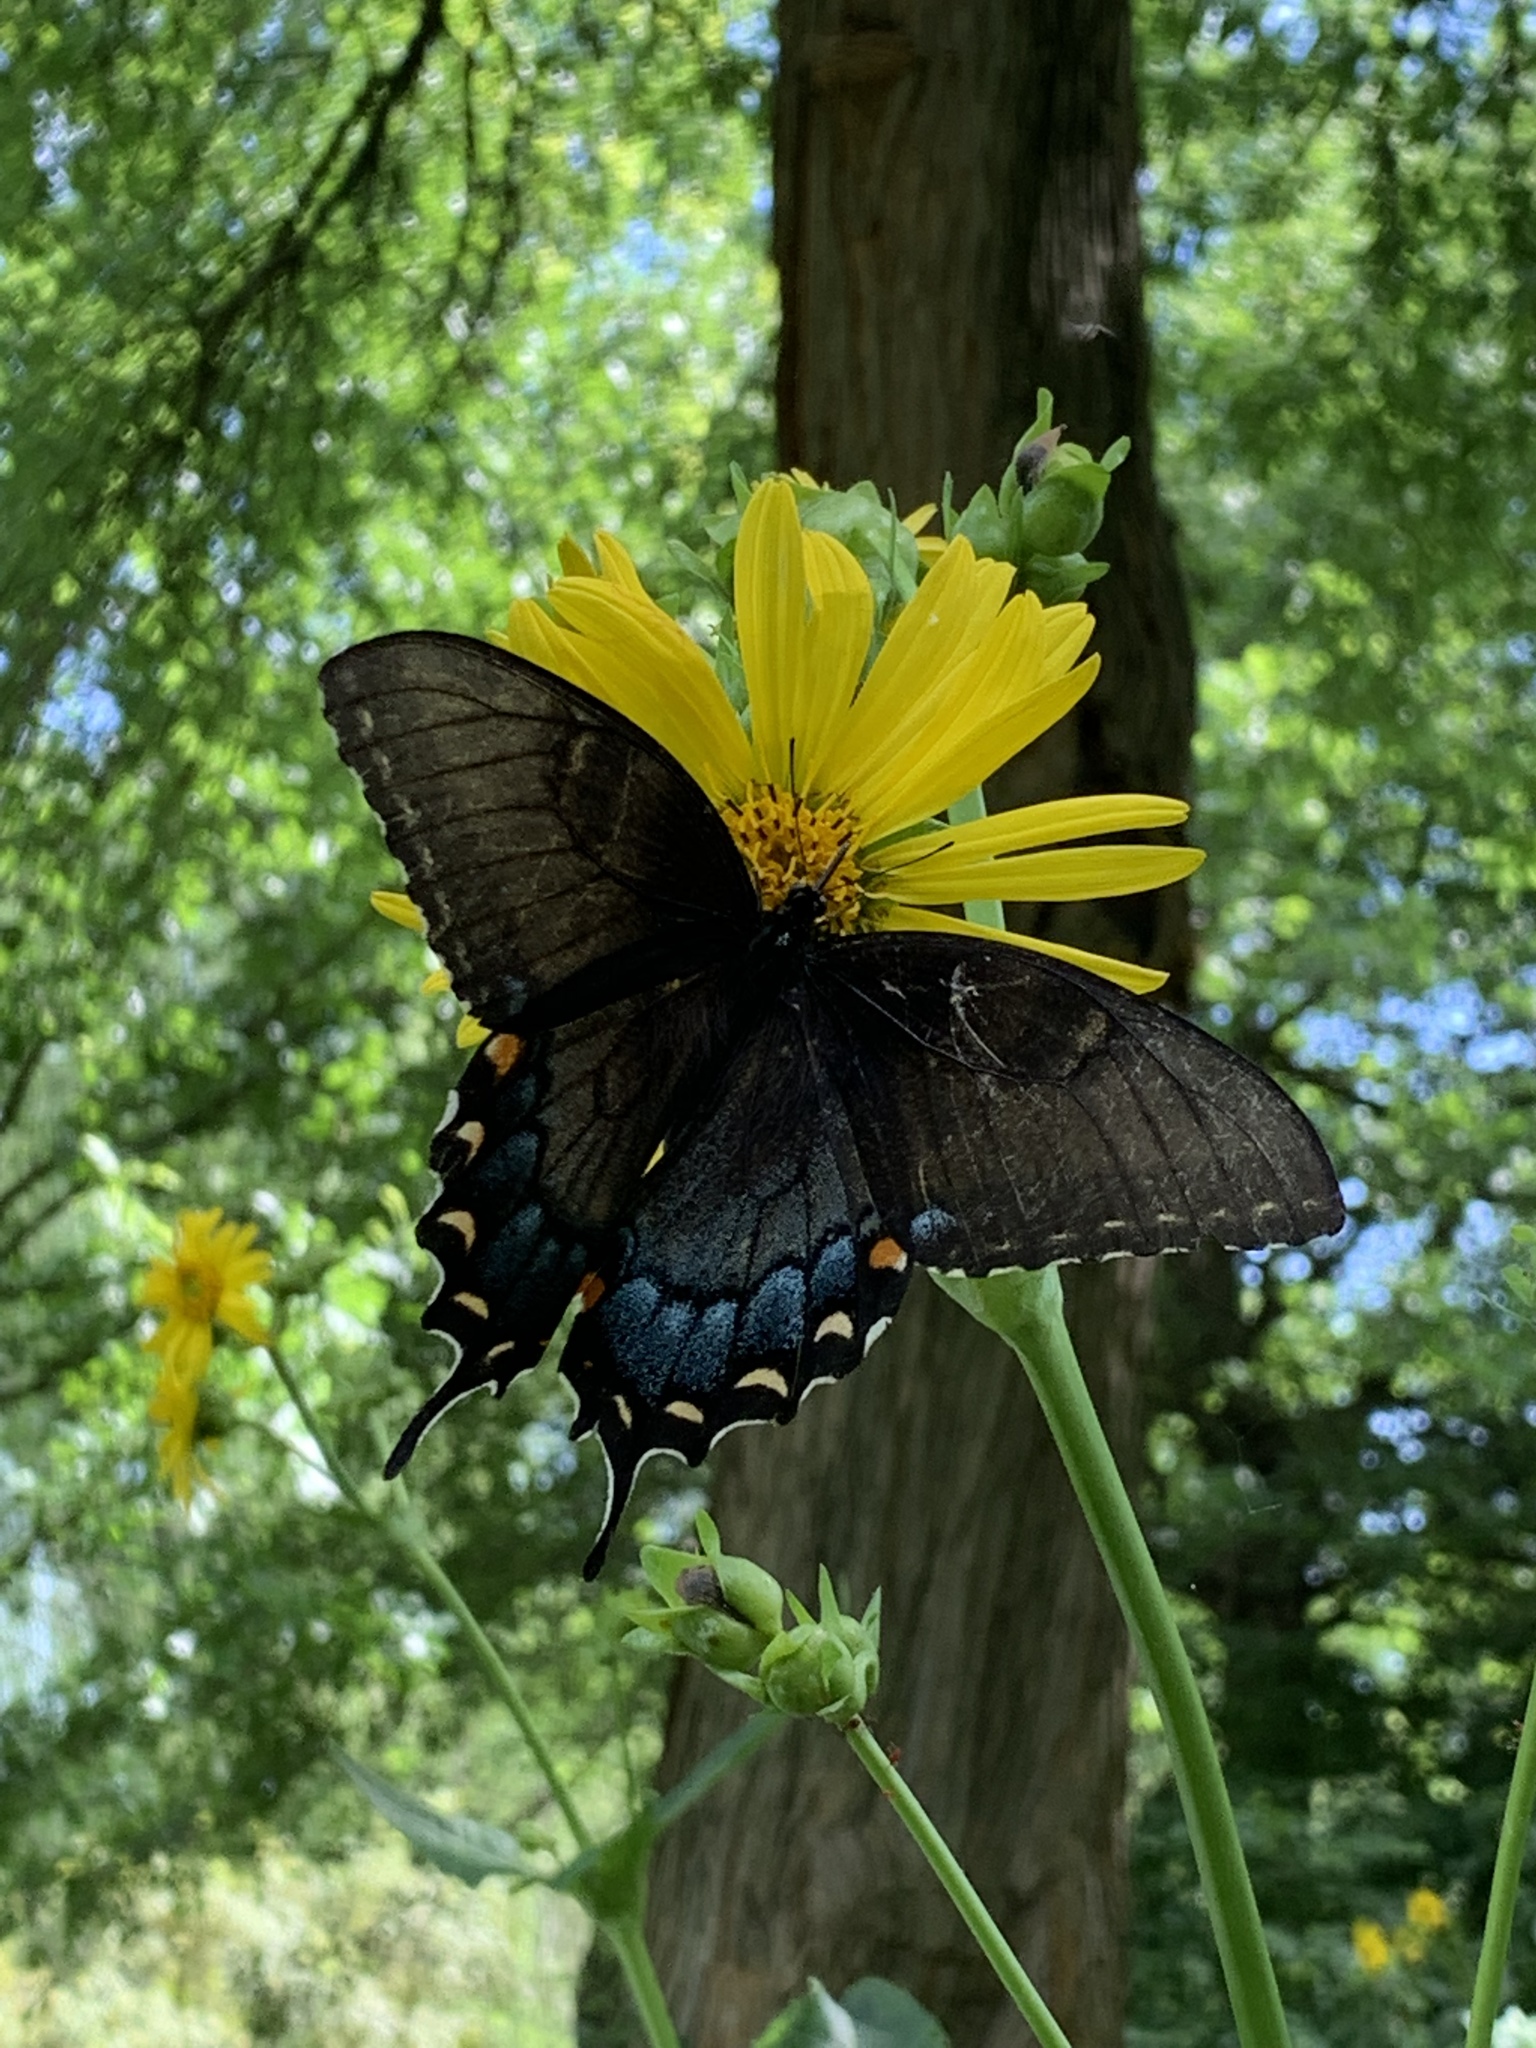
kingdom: Animalia
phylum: Arthropoda
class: Insecta
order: Lepidoptera
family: Papilionidae
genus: Papilio
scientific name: Papilio glaucus
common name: Tiger swallowtail
